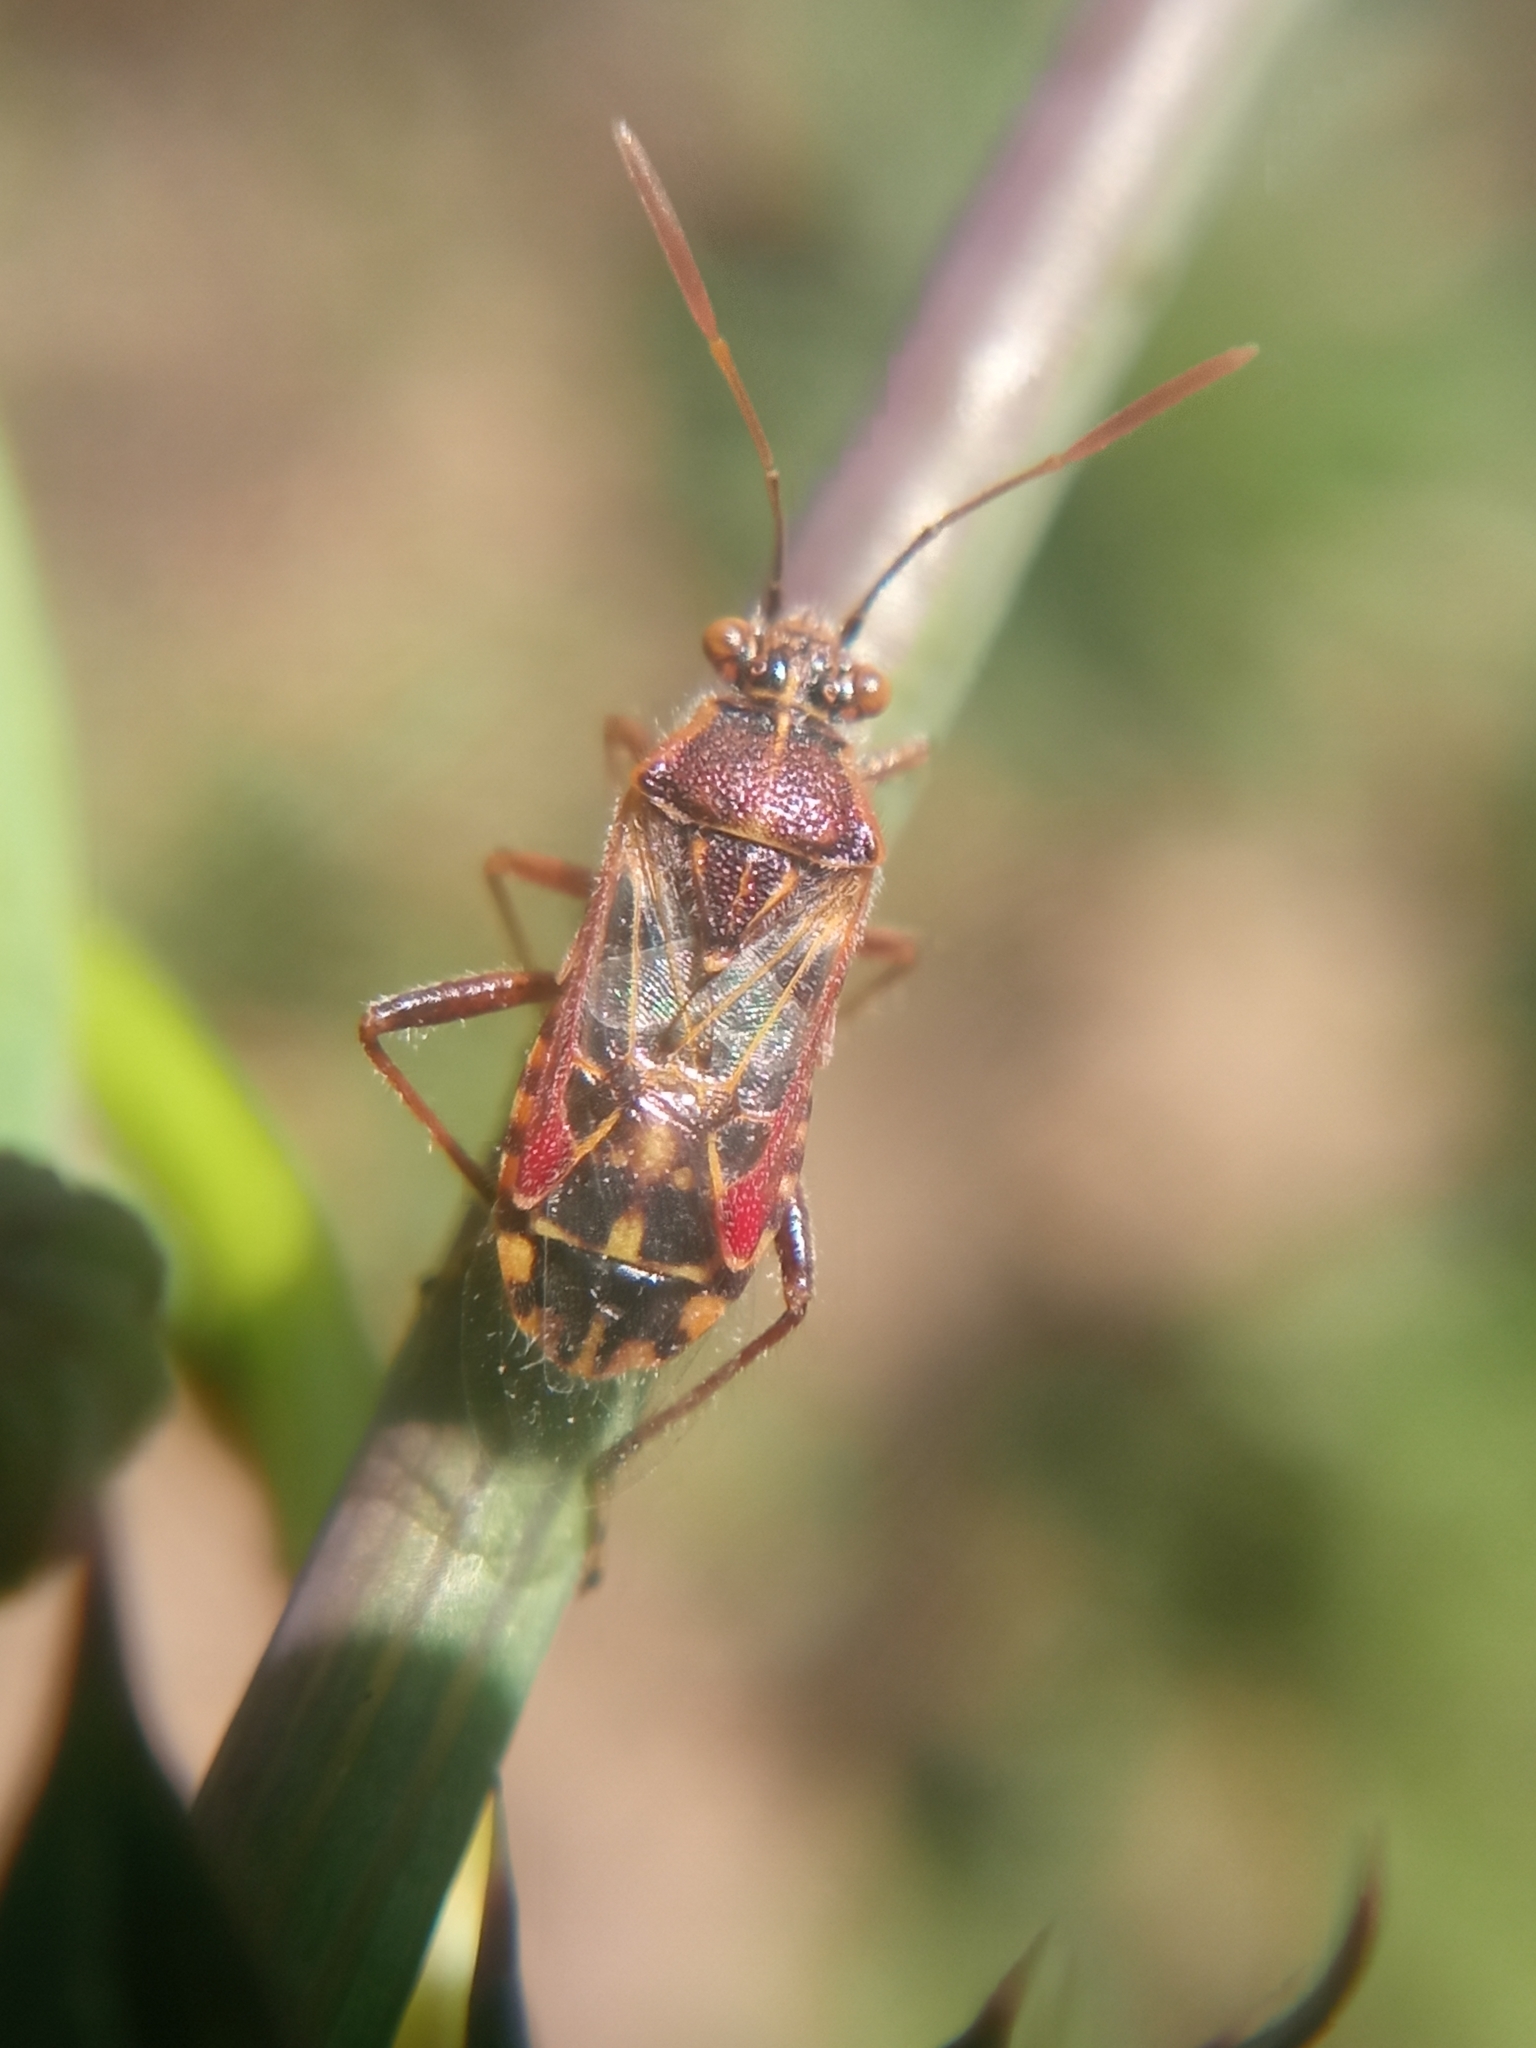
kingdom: Animalia
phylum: Arthropoda
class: Insecta
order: Hemiptera
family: Rhopalidae
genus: Liorhyssus
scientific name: Liorhyssus hyalinus
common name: Scentless plant bug
